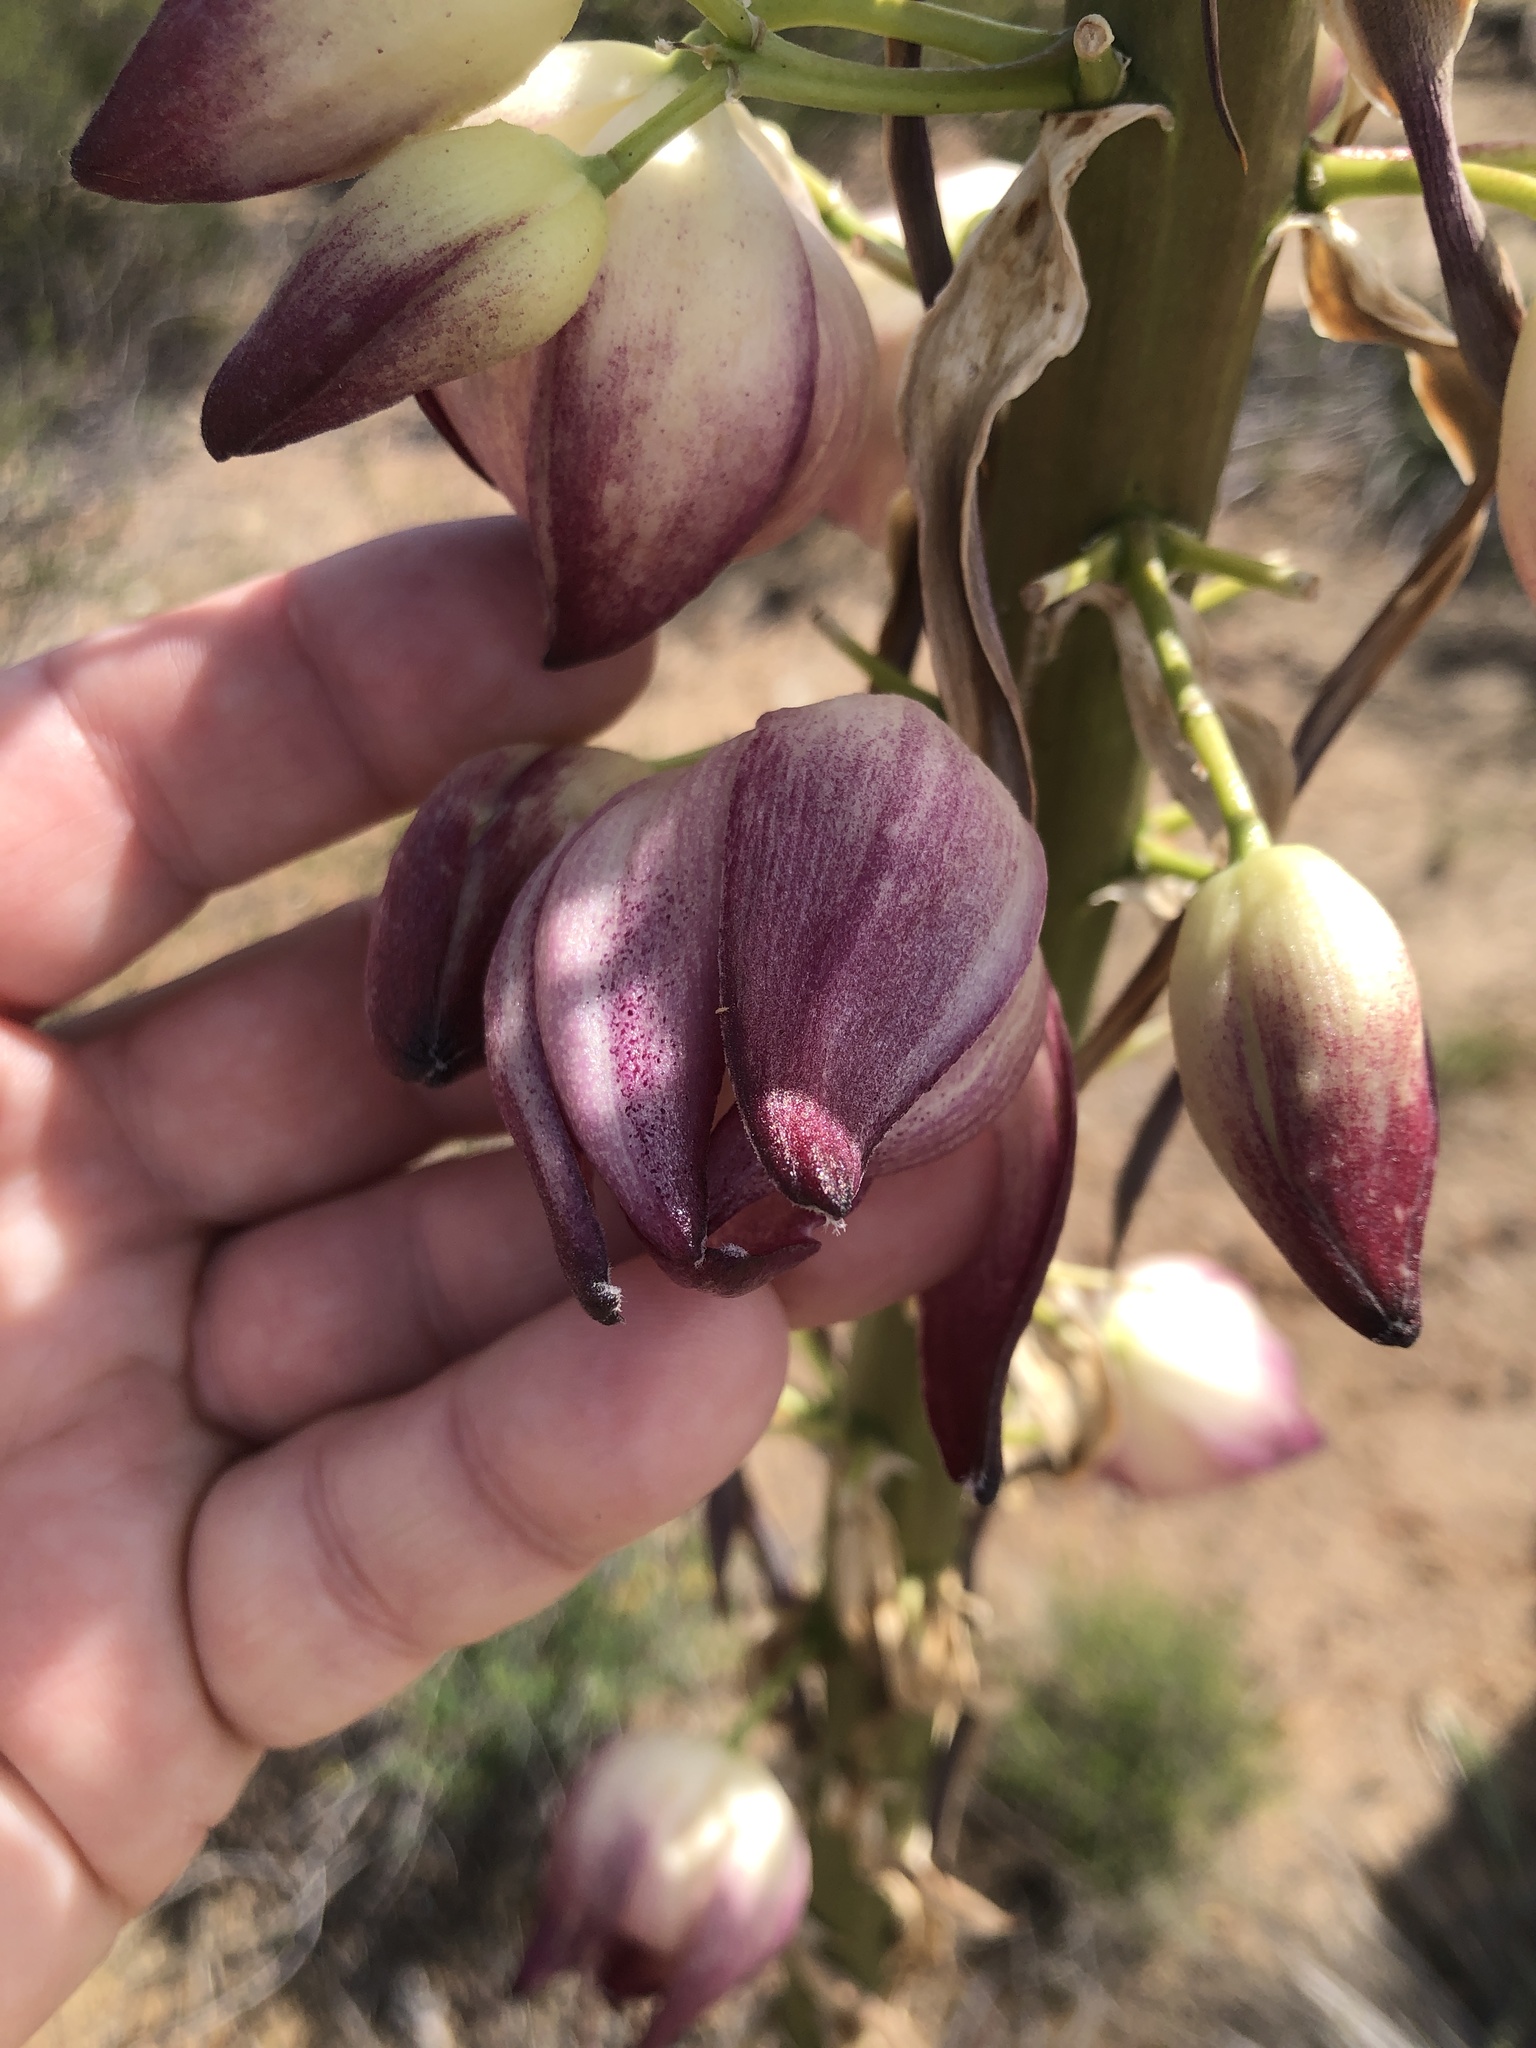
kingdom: Plantae
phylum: Tracheophyta
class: Liliopsida
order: Asparagales
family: Asparagaceae
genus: Hesperoyucca
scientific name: Hesperoyucca whipplei
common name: Our lord's-candle
